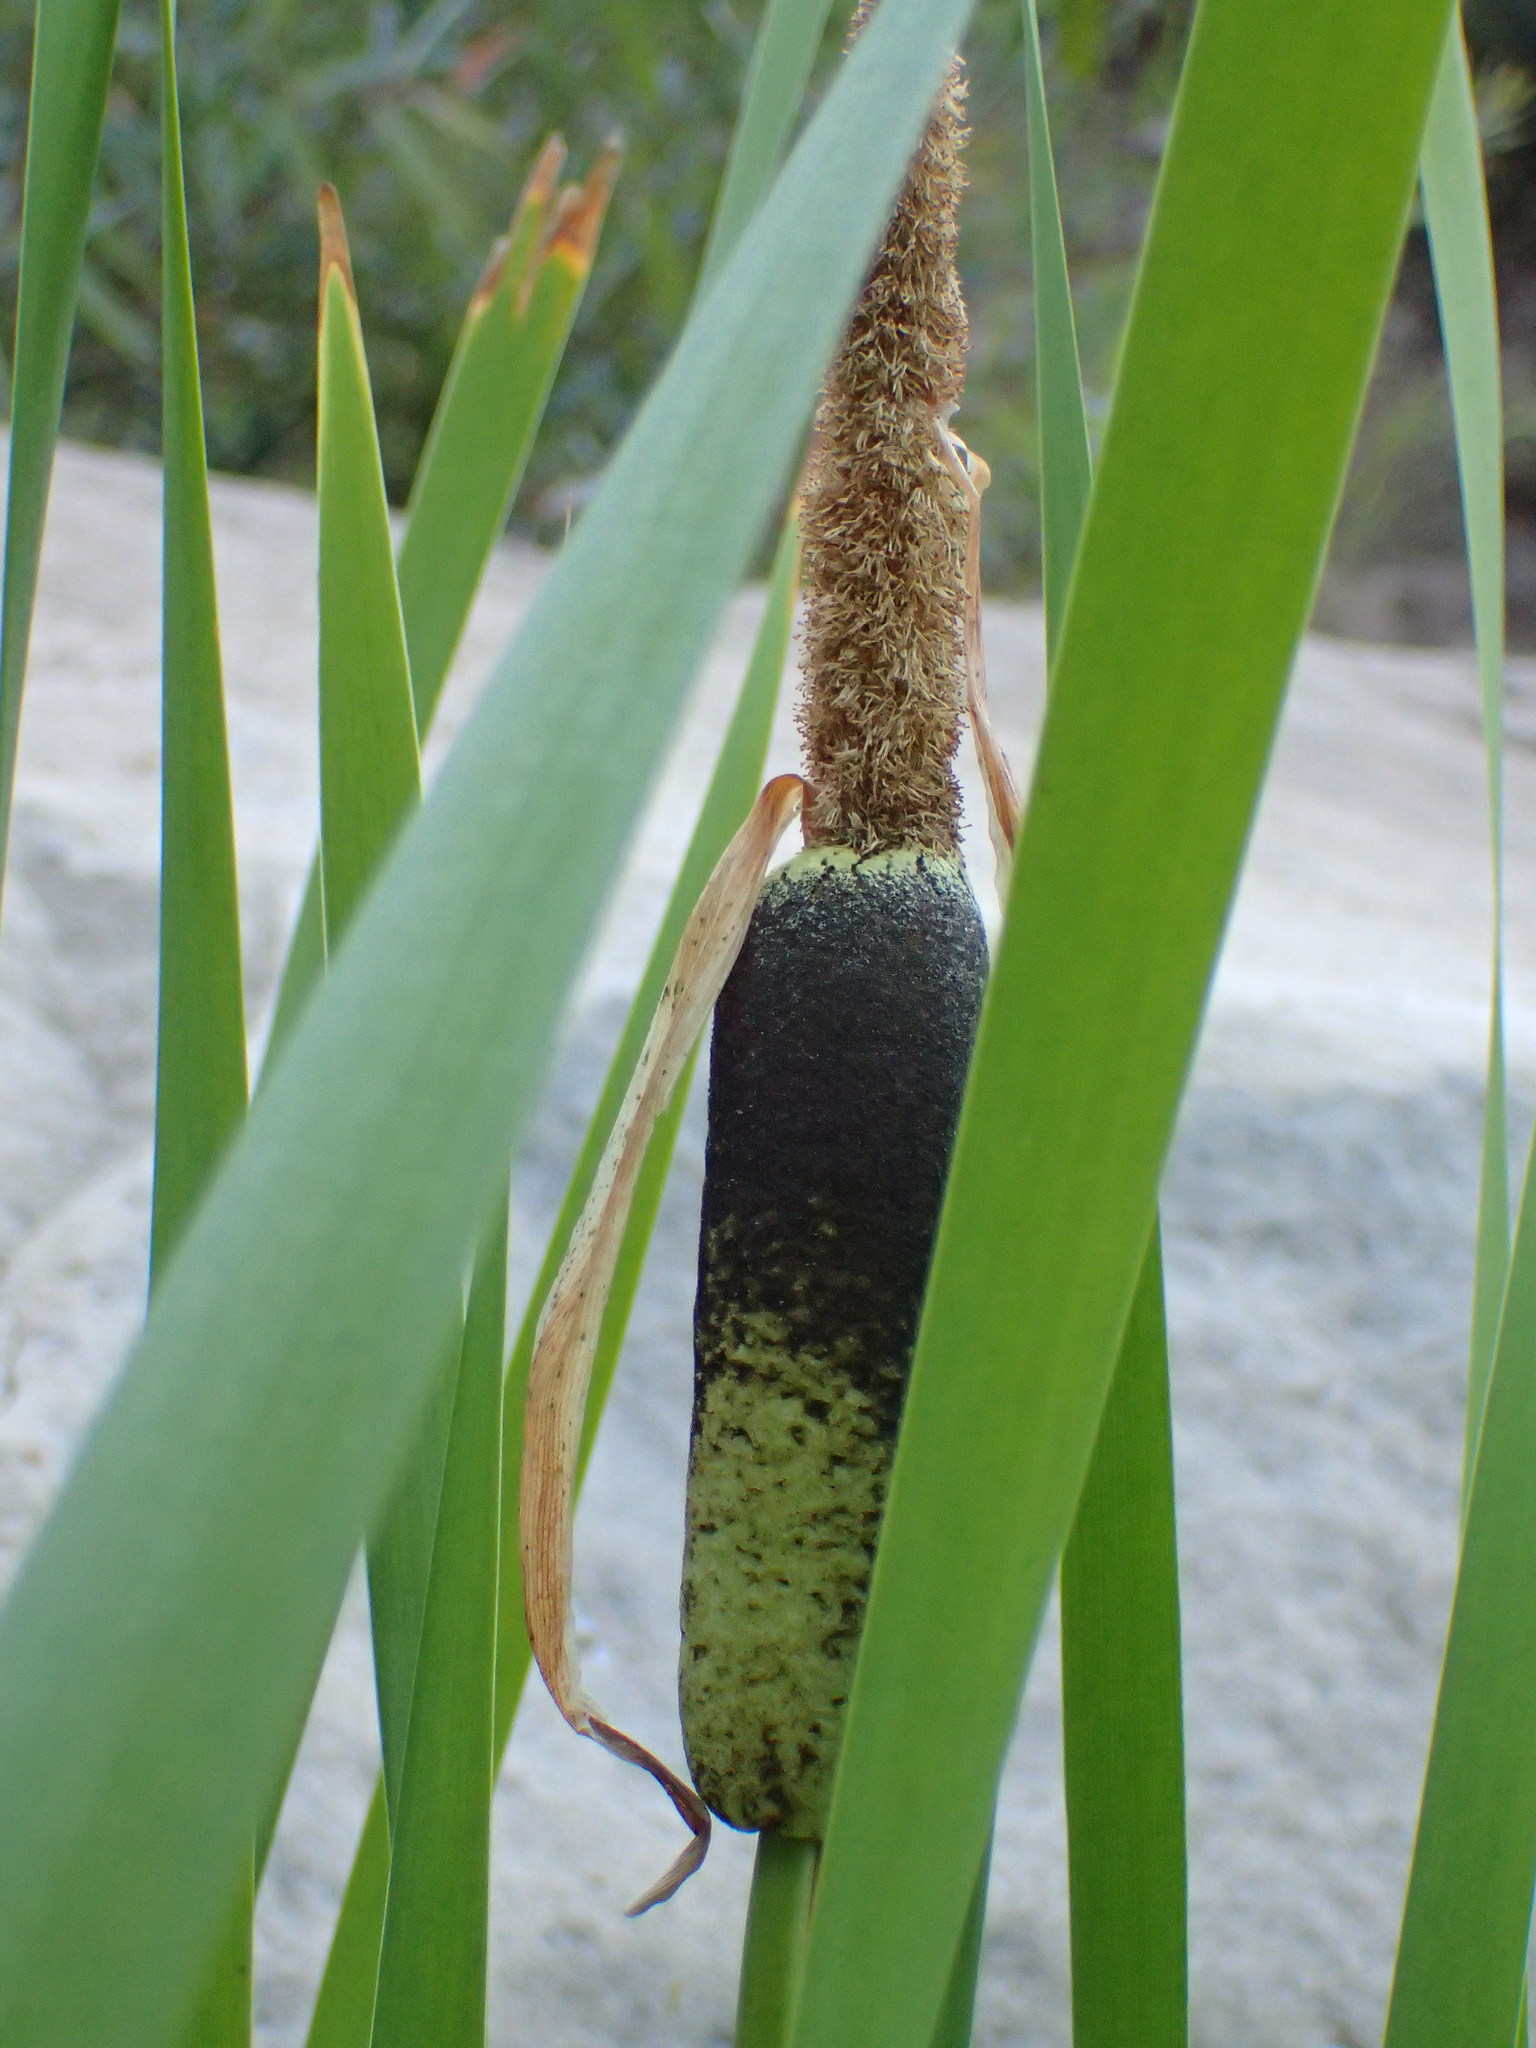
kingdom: Plantae
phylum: Tracheophyta
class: Liliopsida
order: Poales
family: Typhaceae
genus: Typha
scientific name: Typha latifolia
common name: Broadleaf cattail
